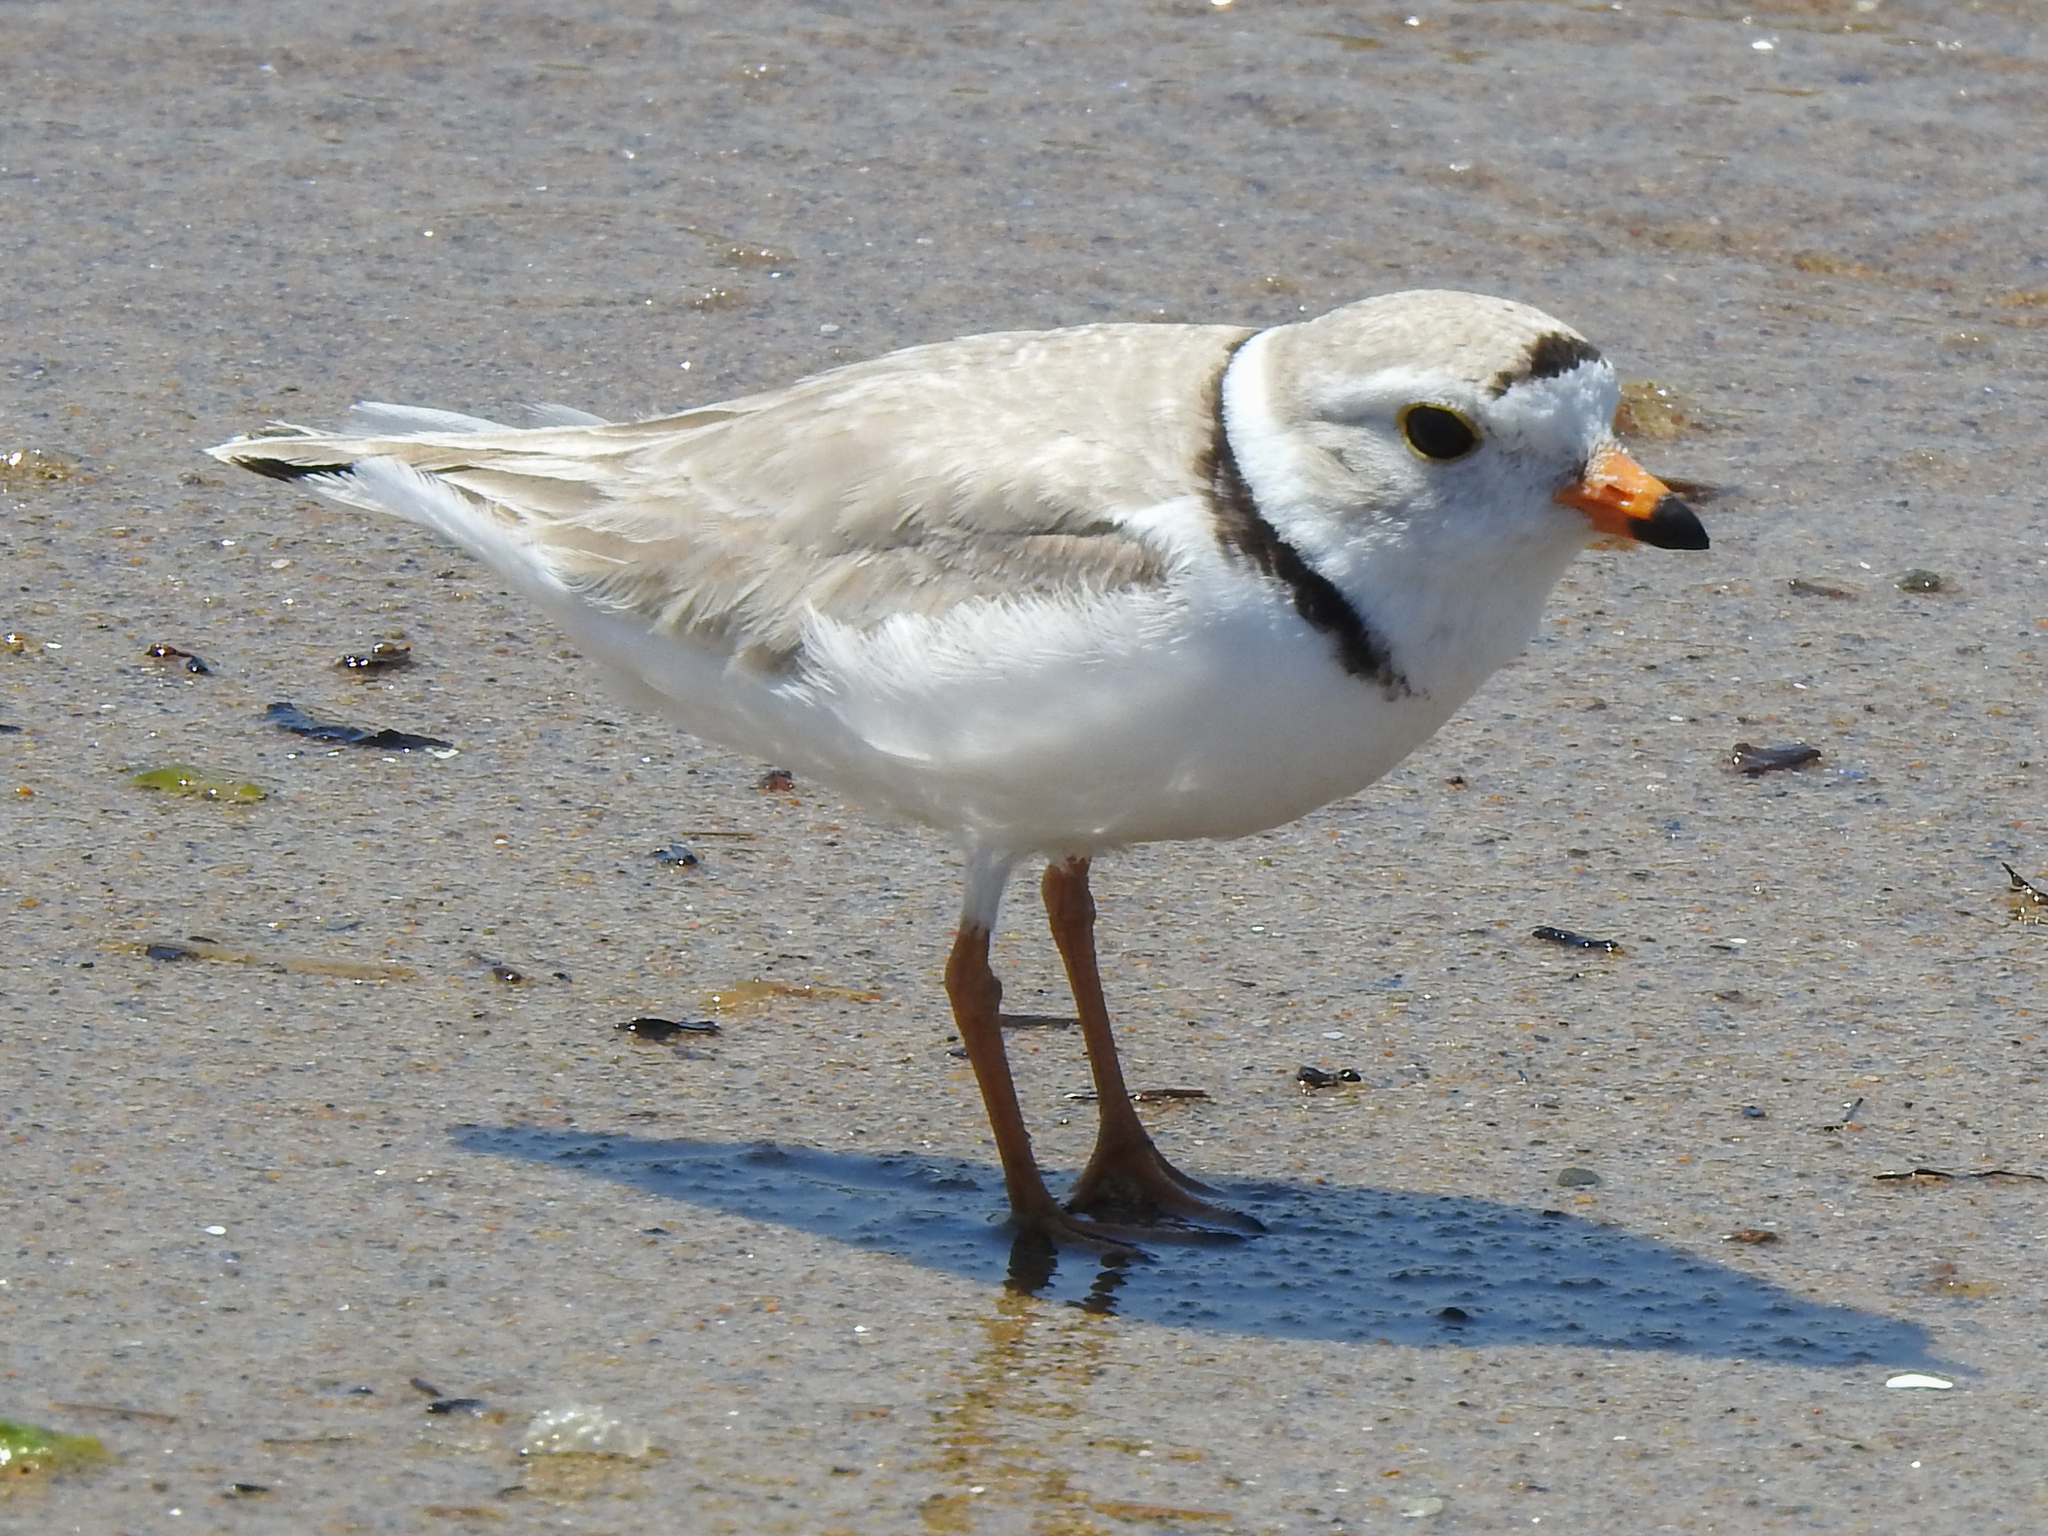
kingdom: Animalia
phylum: Chordata
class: Aves
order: Charadriiformes
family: Charadriidae
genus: Charadrius
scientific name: Charadrius melodus
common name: Piping plover
